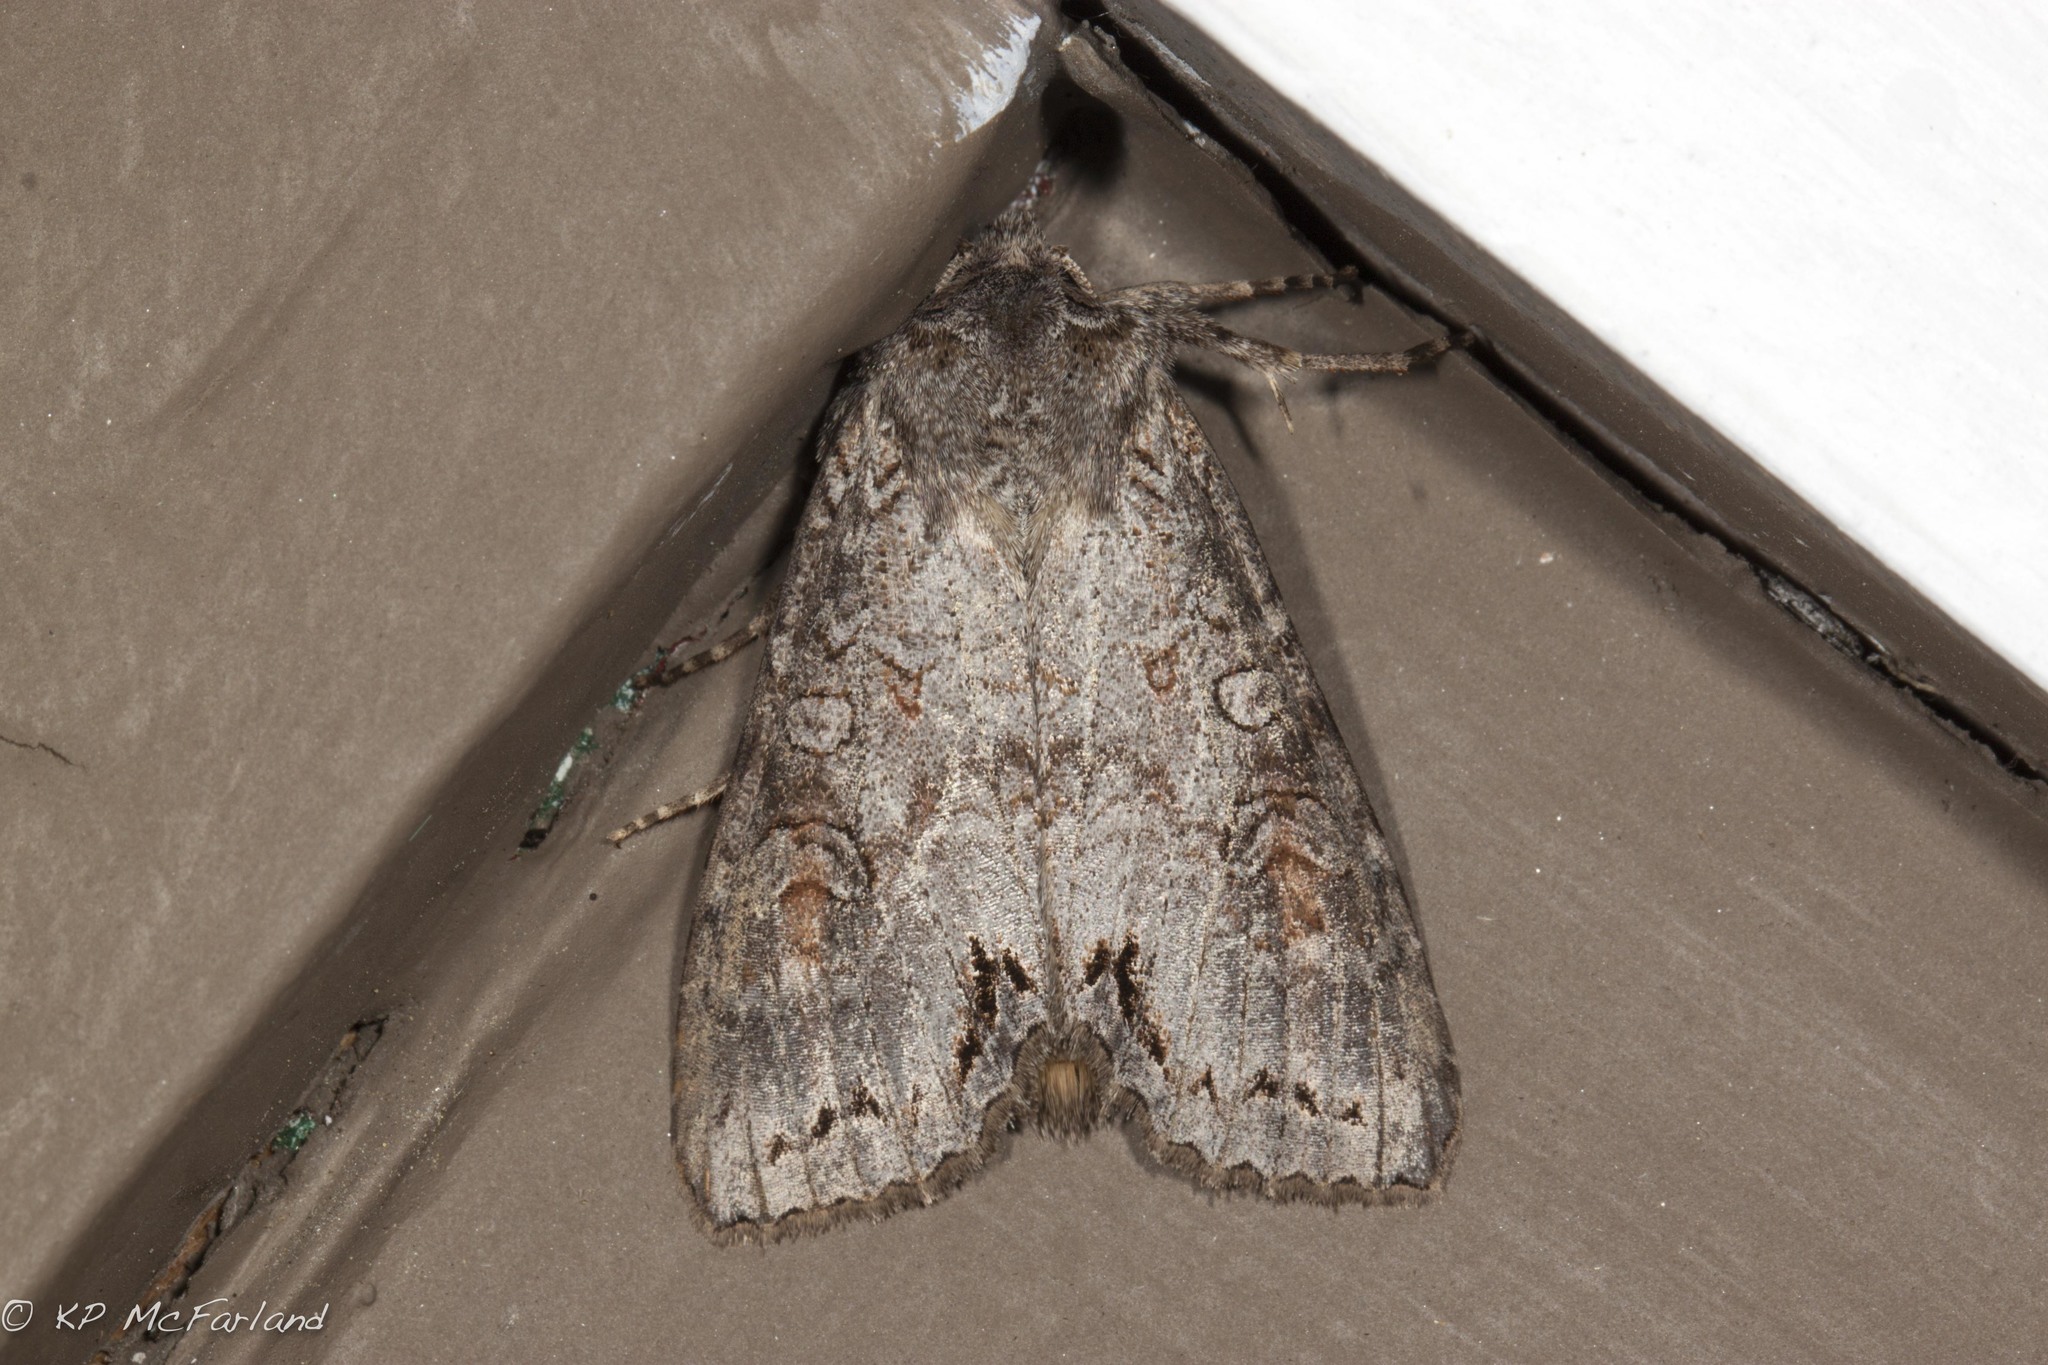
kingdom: Animalia
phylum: Arthropoda
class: Insecta
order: Lepidoptera
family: Noctuidae
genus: Polia
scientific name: Polia purpurissata
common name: Purple arches moth
